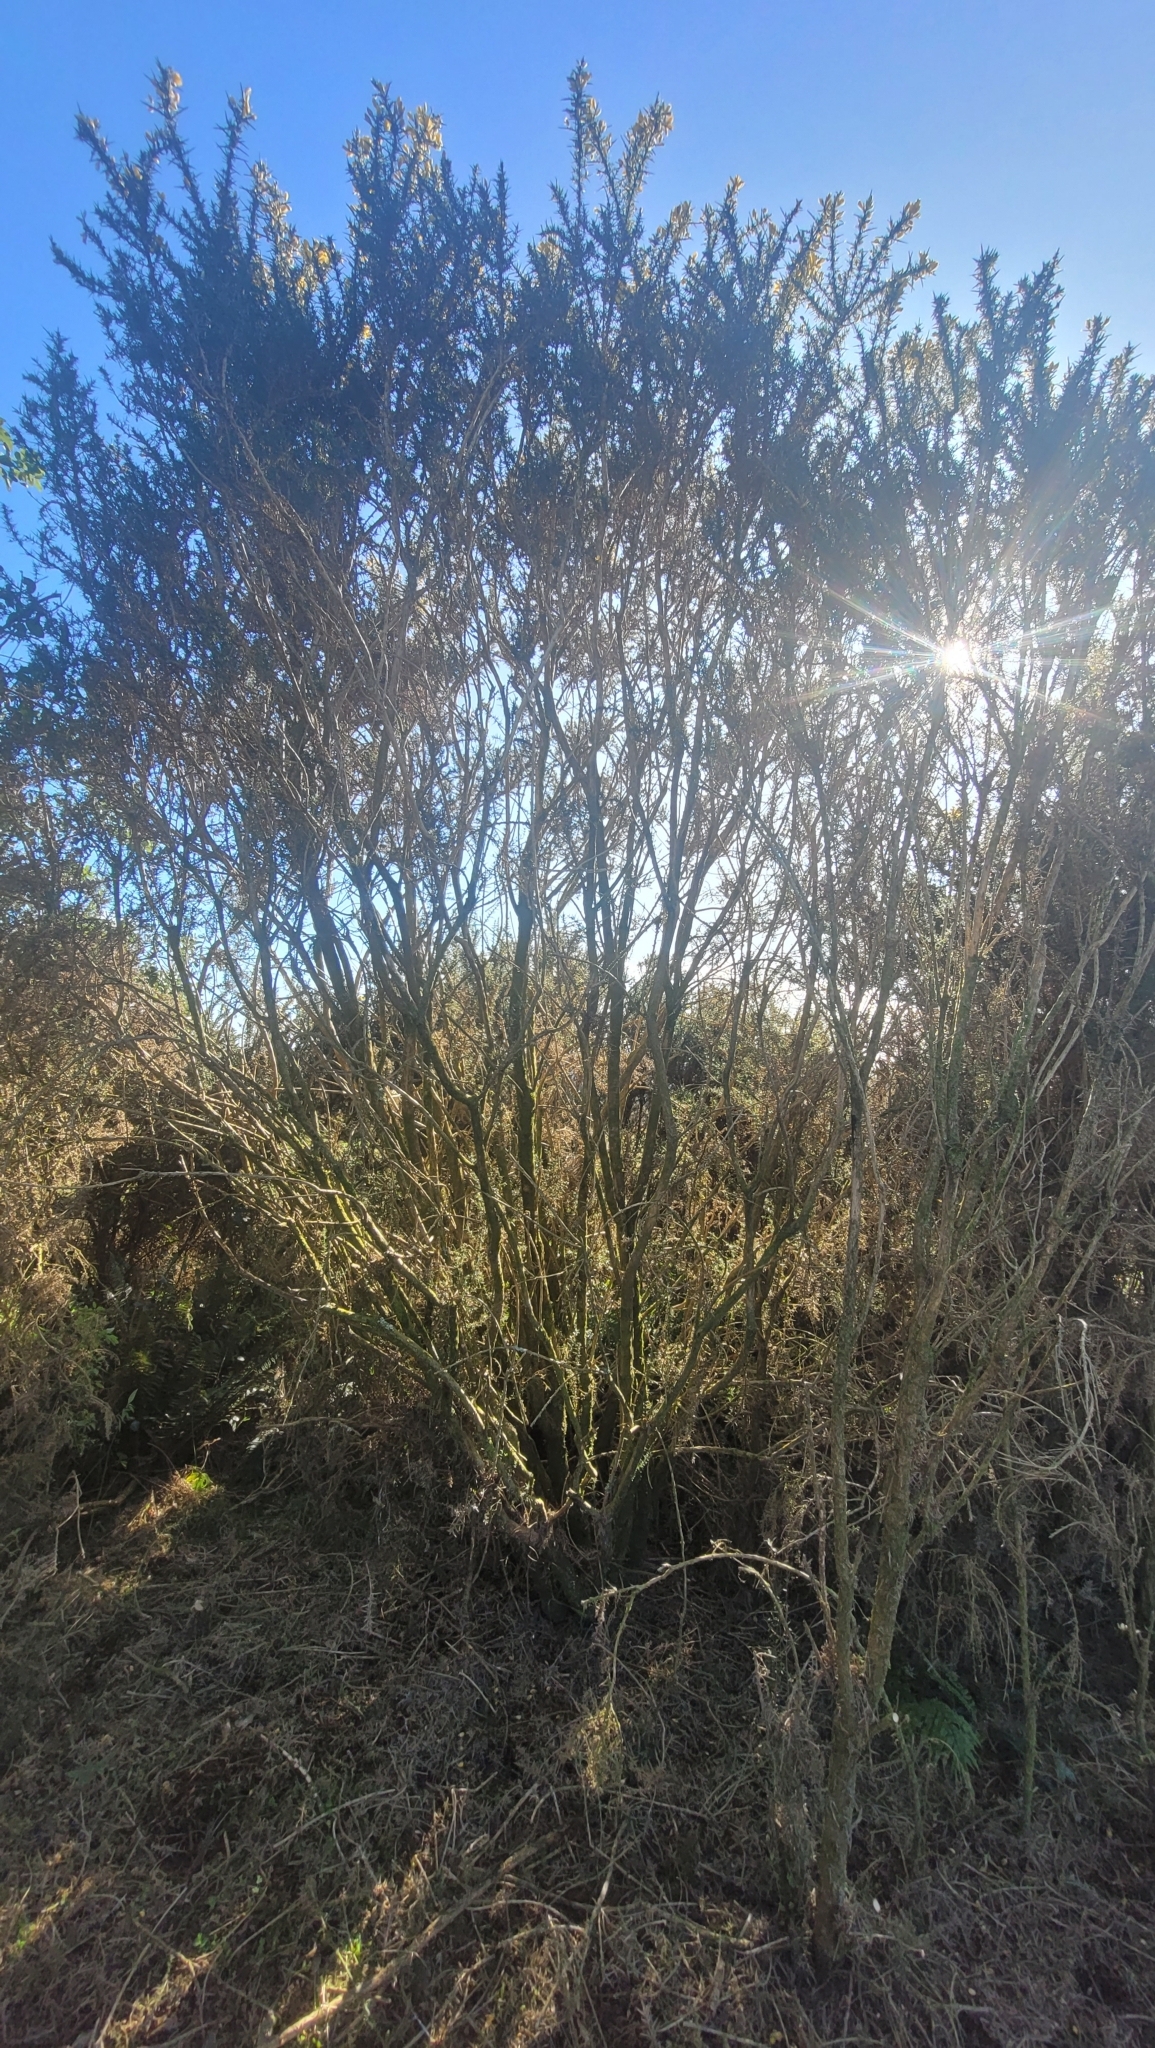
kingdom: Plantae
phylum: Tracheophyta
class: Magnoliopsida
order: Fabales
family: Fabaceae
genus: Ulex
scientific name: Ulex europaeus
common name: Common gorse
